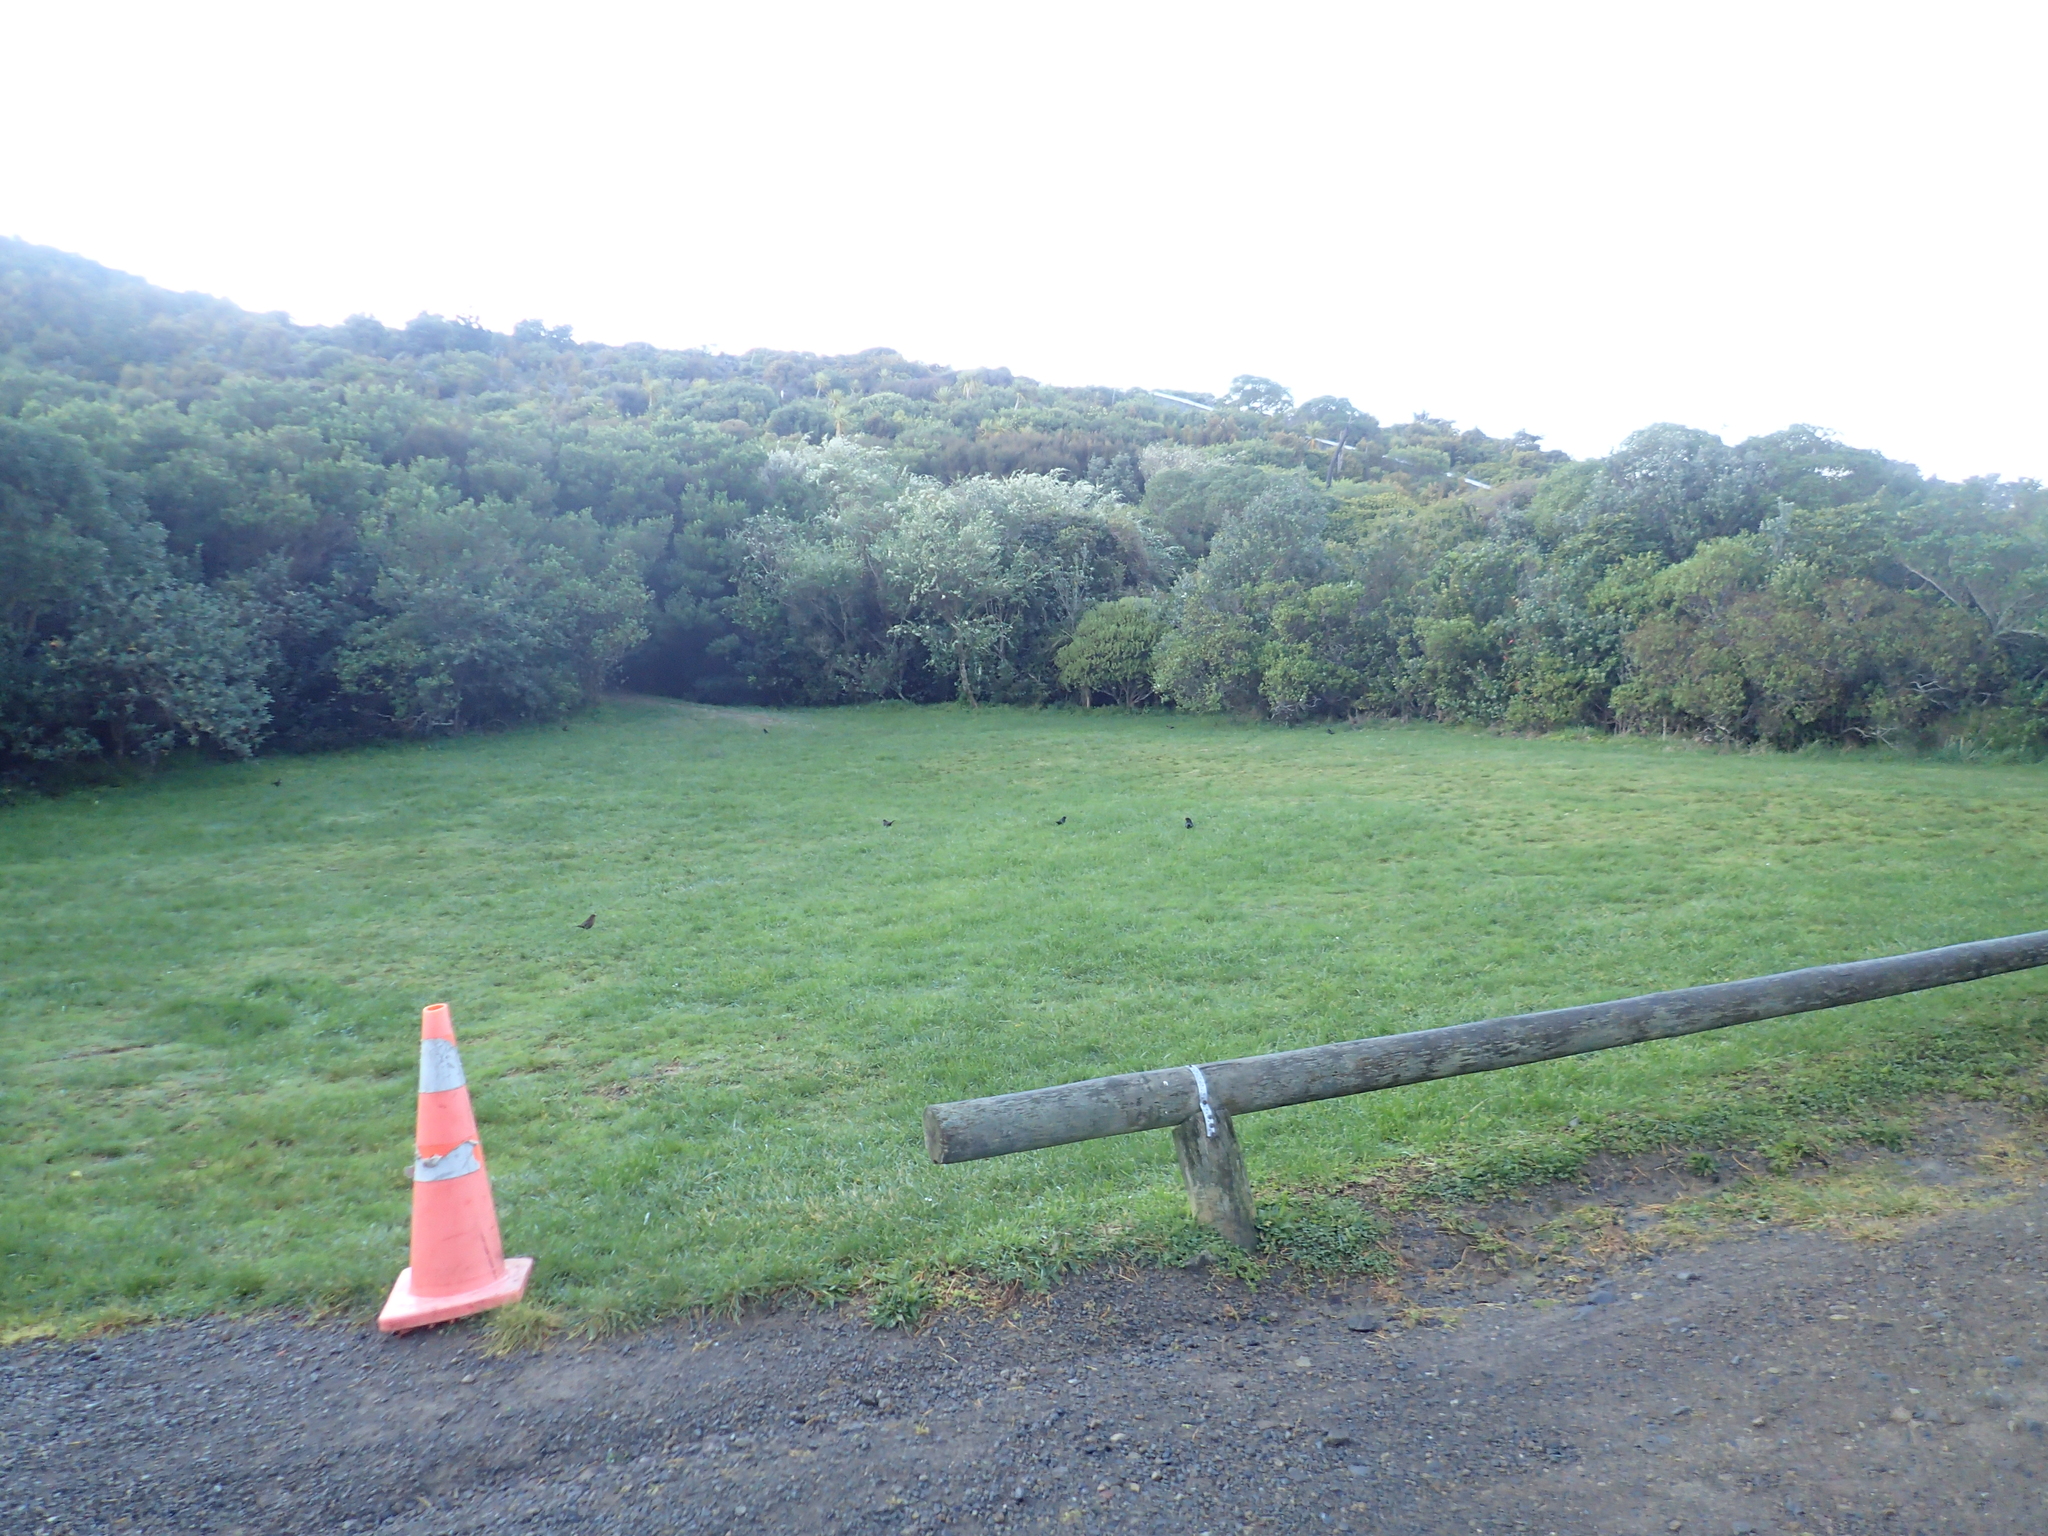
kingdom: Animalia
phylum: Chordata
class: Aves
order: Passeriformes
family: Turdidae
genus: Turdus
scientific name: Turdus merula
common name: Common blackbird
